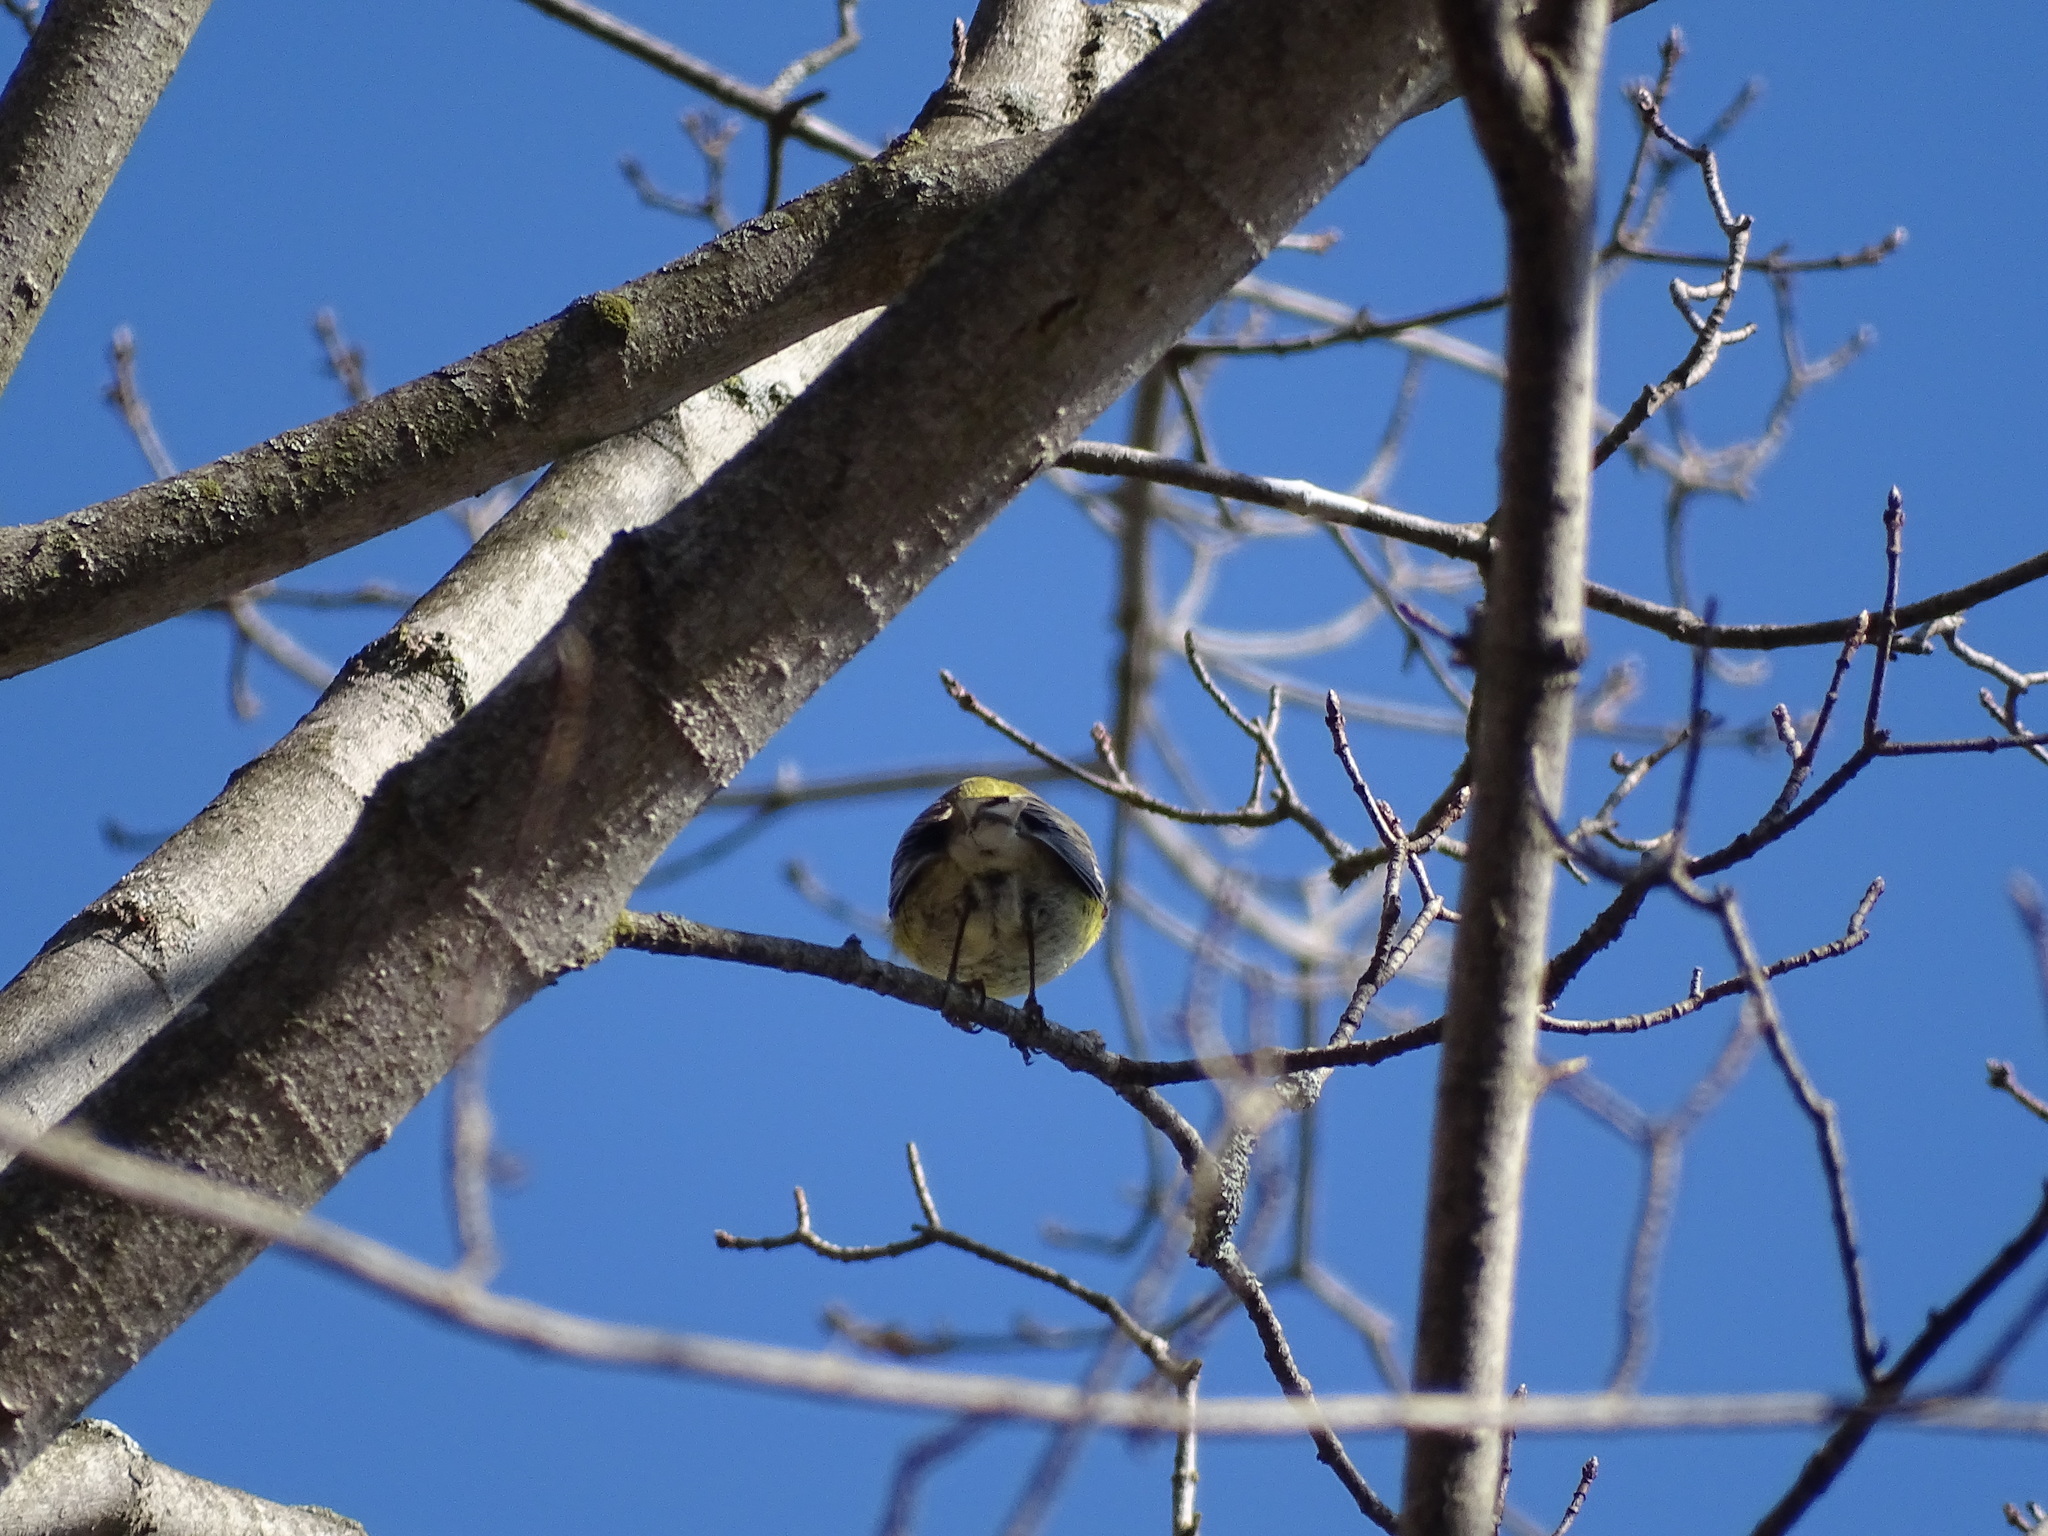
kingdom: Animalia
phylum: Chordata
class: Aves
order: Passeriformes
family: Parulidae
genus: Setophaga
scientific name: Setophaga pinus
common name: Pine warbler
